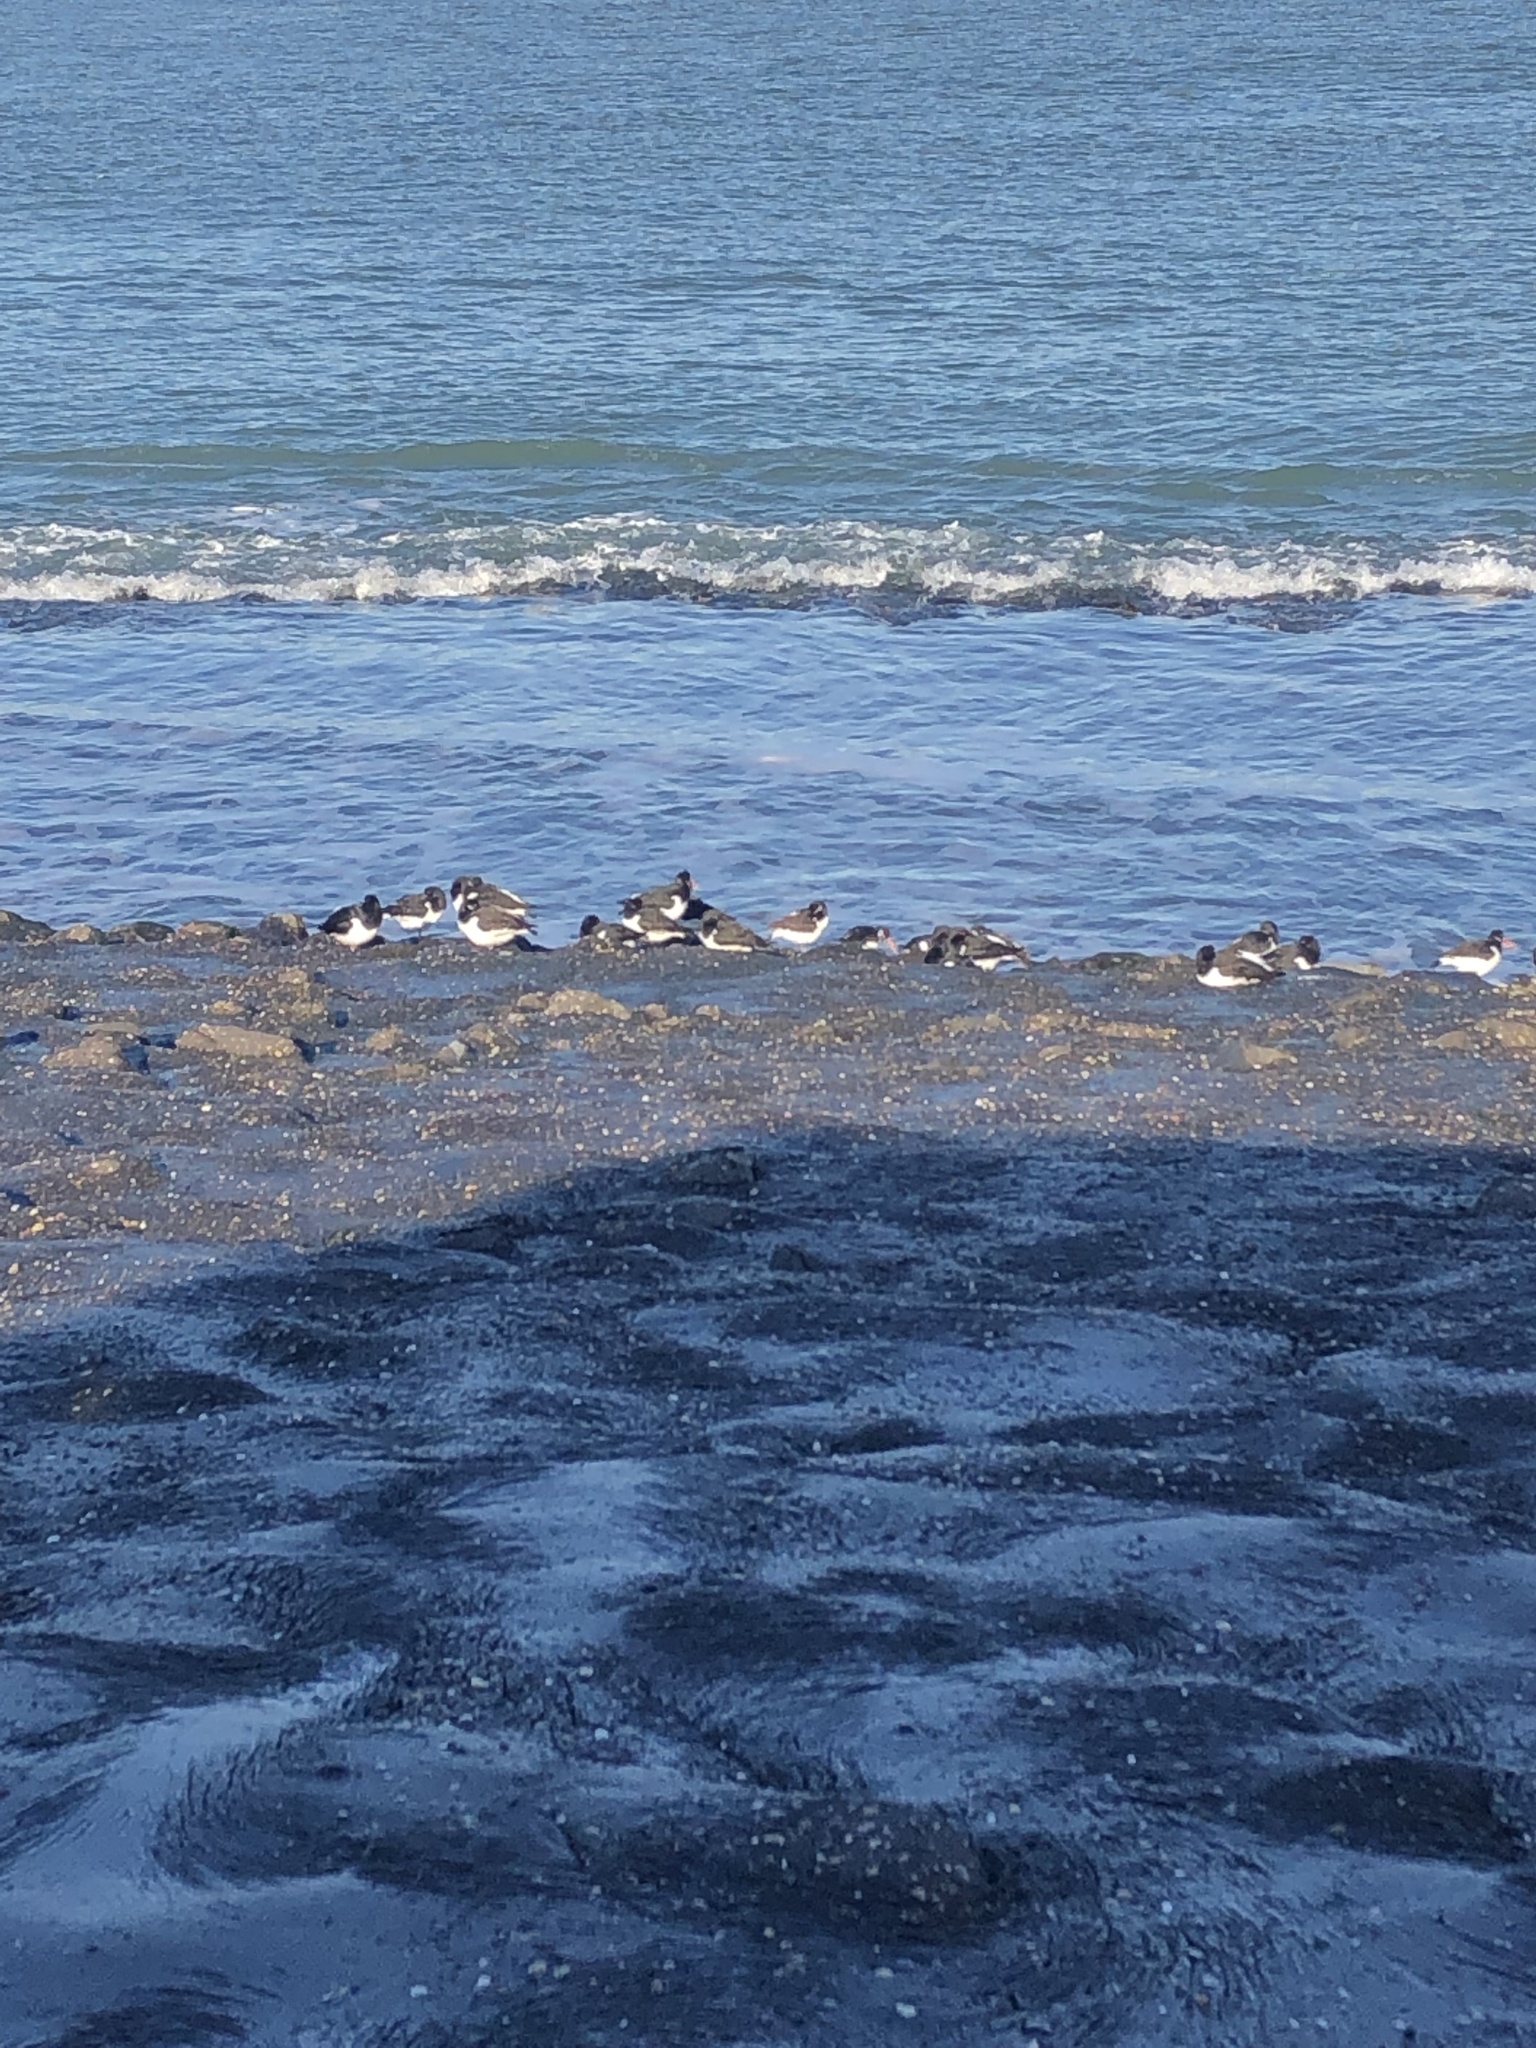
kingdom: Animalia
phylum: Chordata
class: Aves
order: Charadriiformes
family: Haematopodidae
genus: Haematopus
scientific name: Haematopus ostralegus
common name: Eurasian oystercatcher
